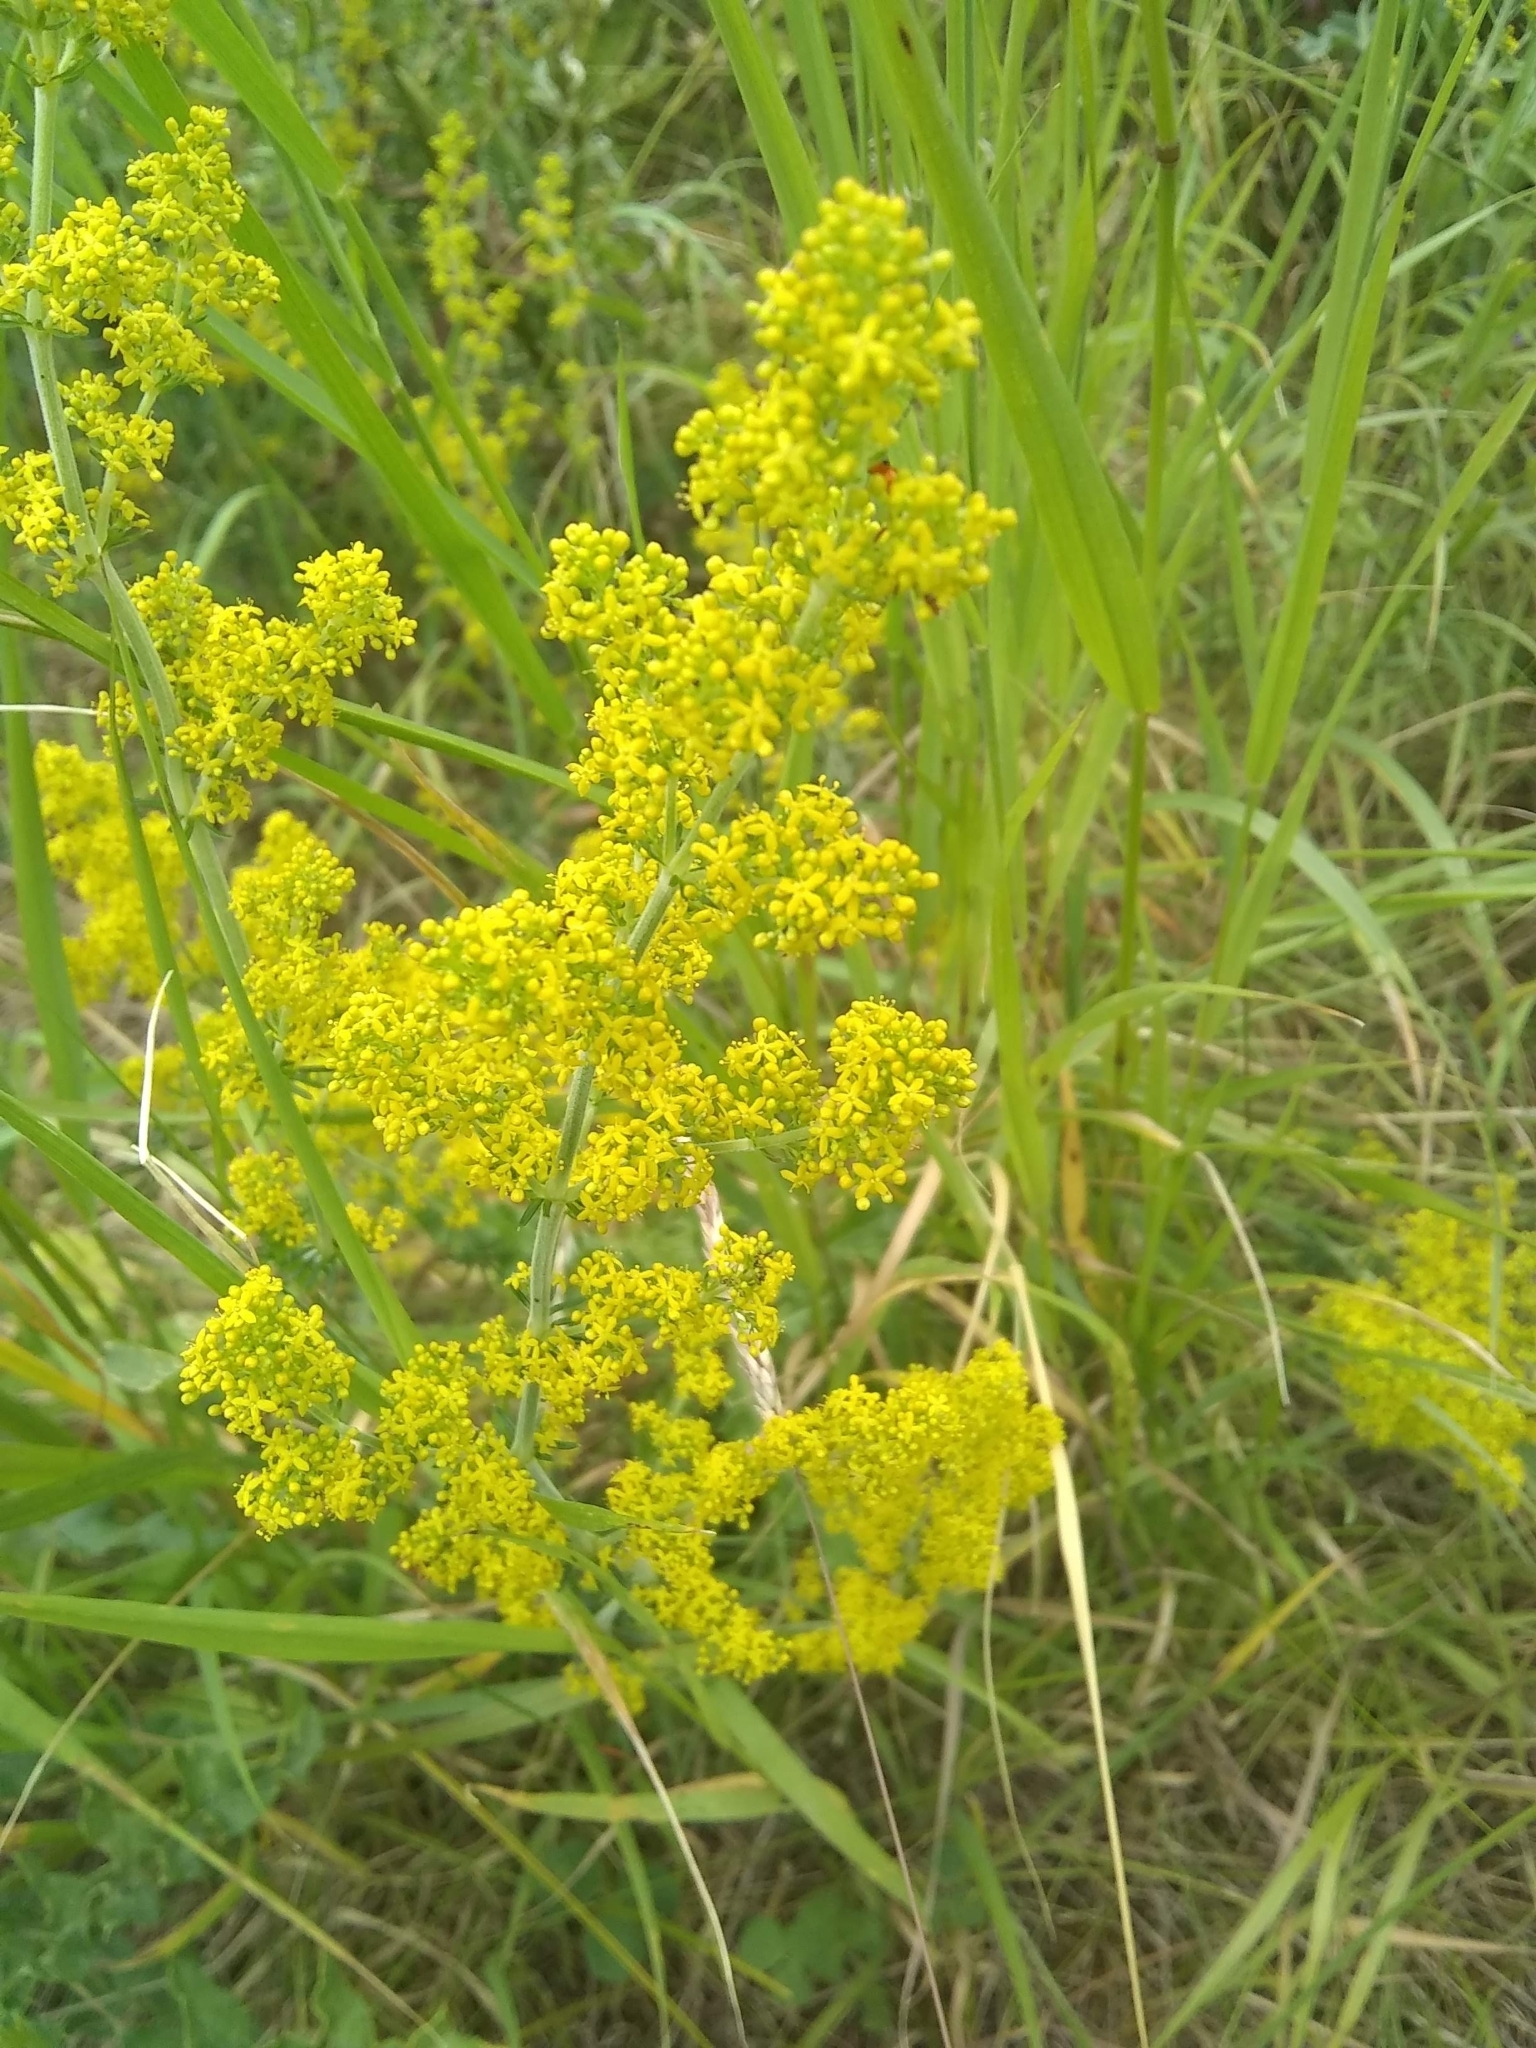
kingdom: Plantae
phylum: Tracheophyta
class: Magnoliopsida
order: Gentianales
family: Rubiaceae
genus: Galium
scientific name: Galium verum
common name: Lady's bedstraw
